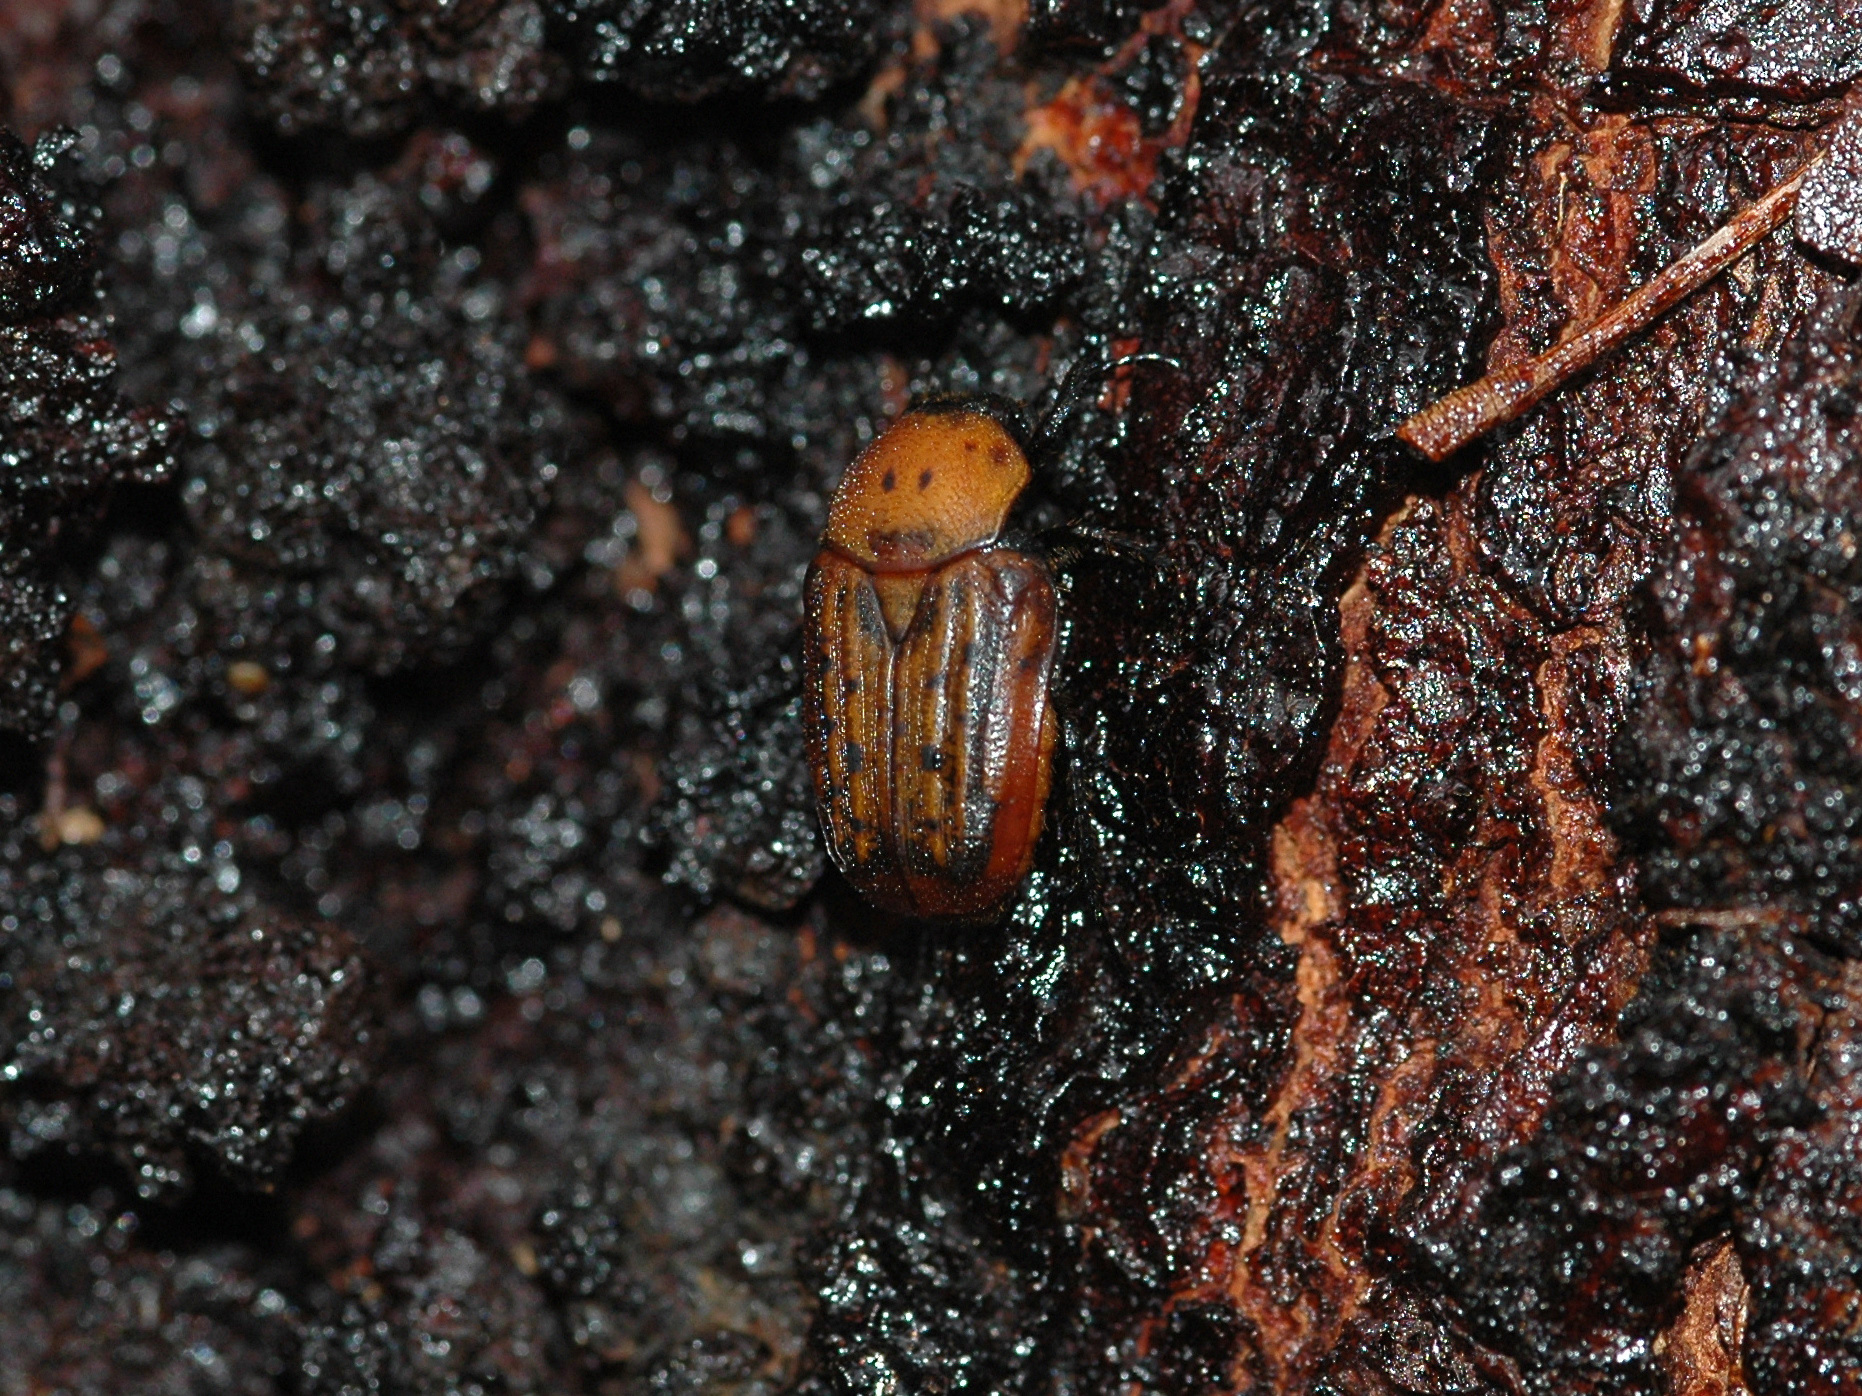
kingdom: Animalia
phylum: Arthropoda
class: Insecta
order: Coleoptera
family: Scarabaeidae
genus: Diphrontis
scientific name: Diphrontis gerstaeckeri
